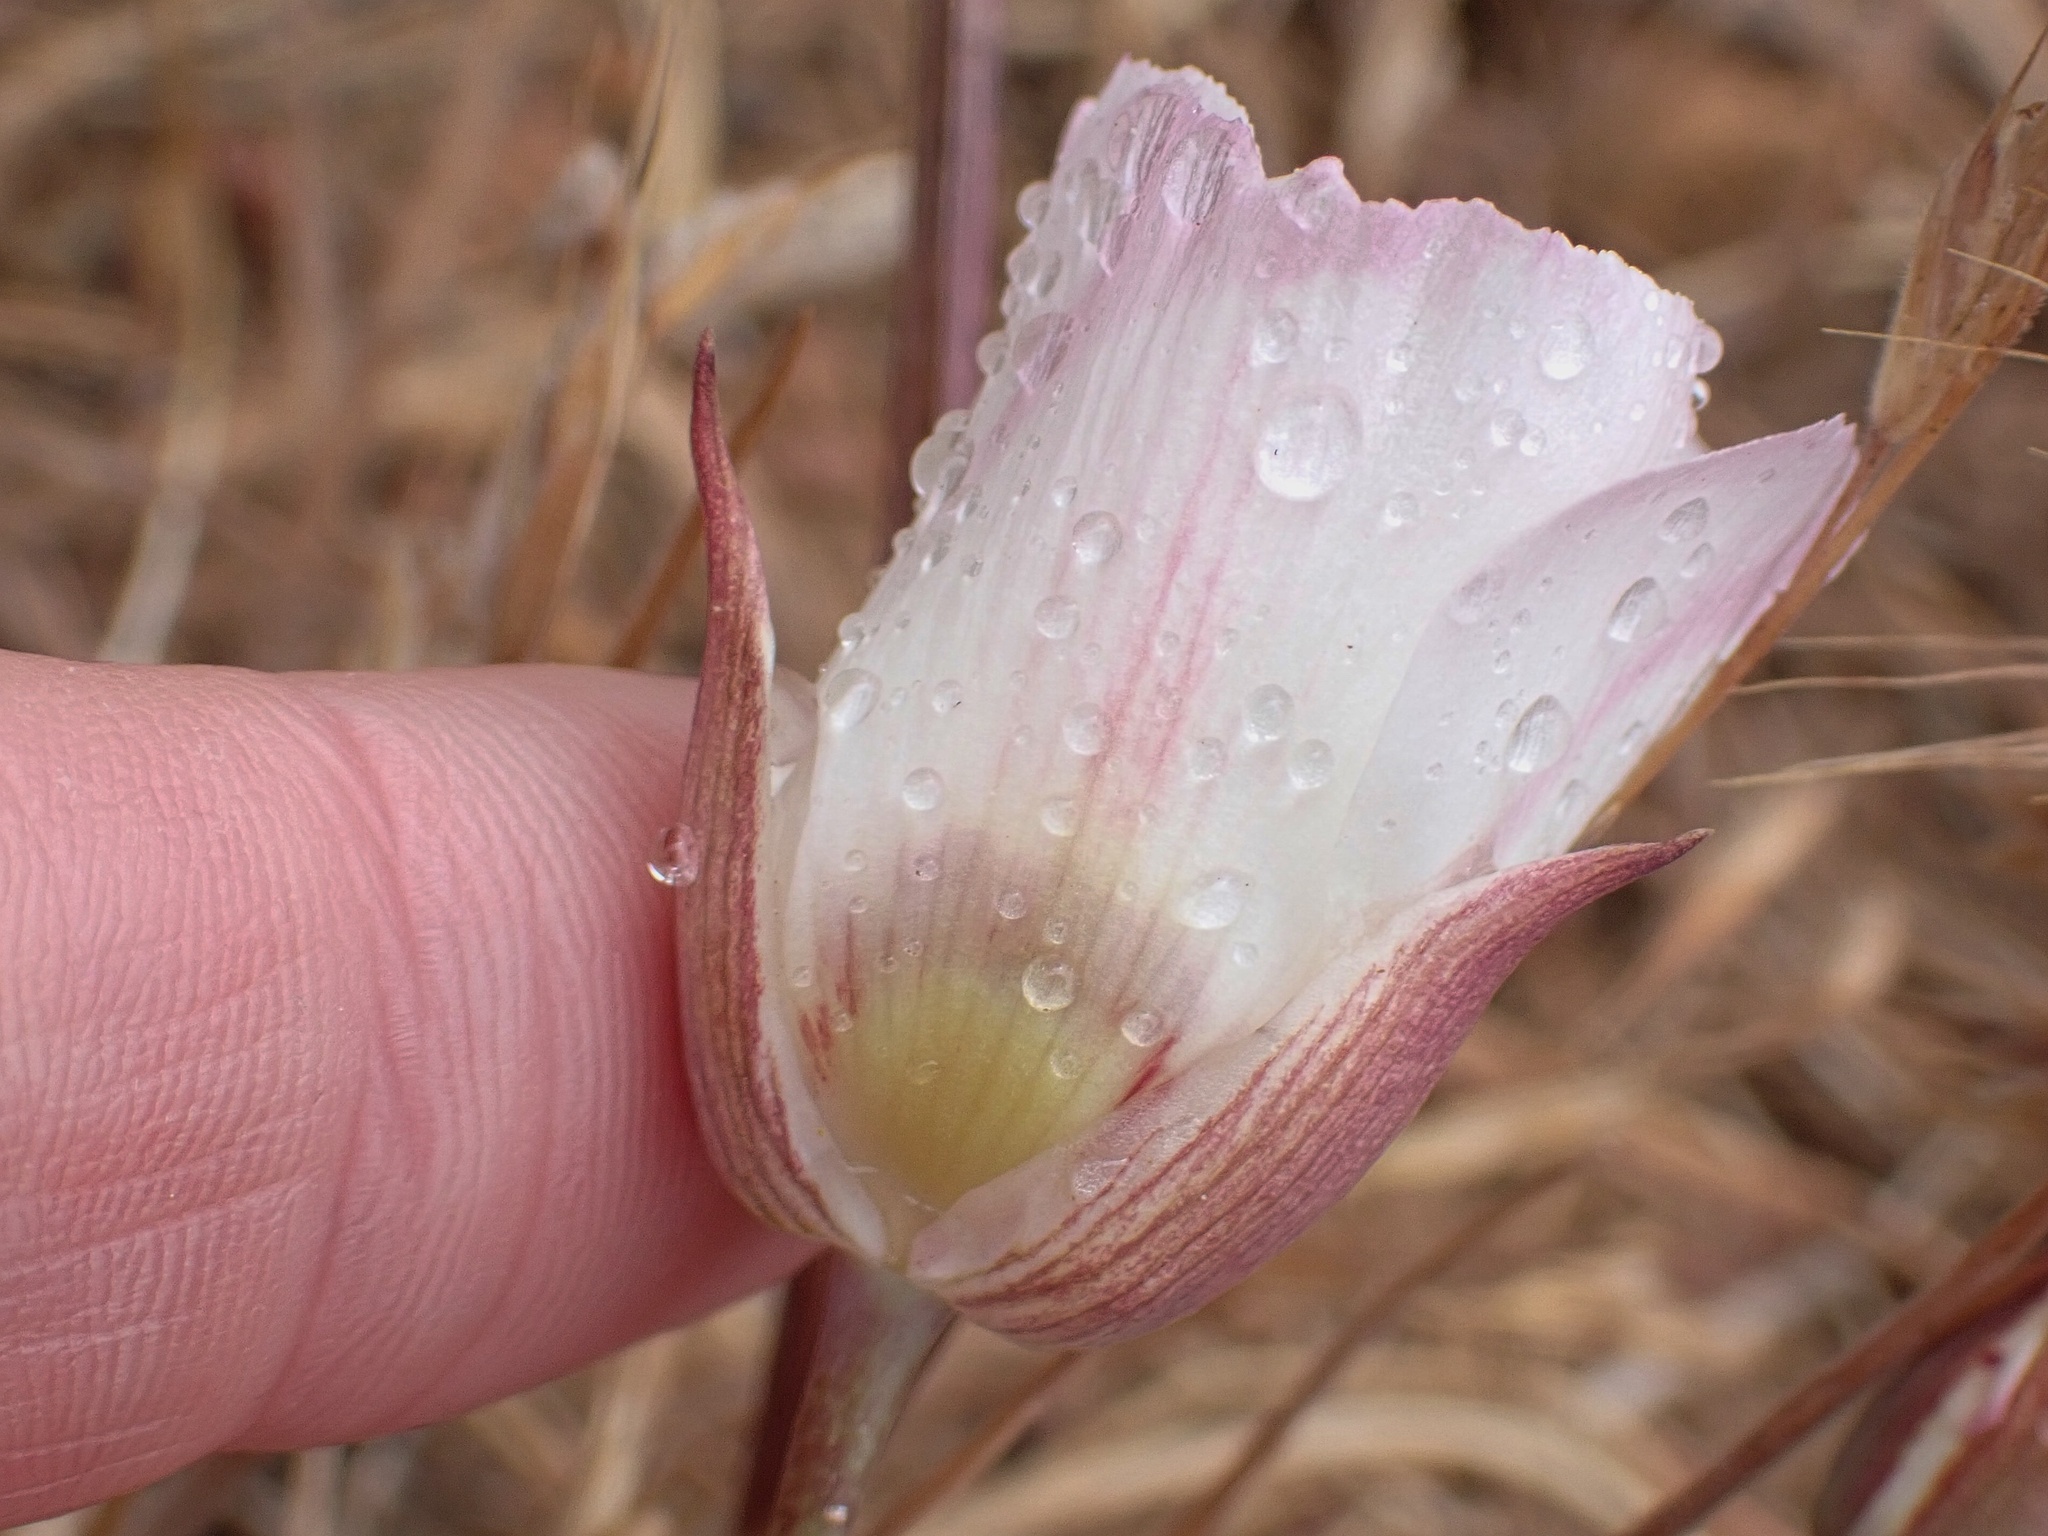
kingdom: Plantae
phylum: Tracheophyta
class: Liliopsida
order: Liliales
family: Liliaceae
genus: Calochortus
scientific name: Calochortus dunnii
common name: Dunn's mariposa-lily
